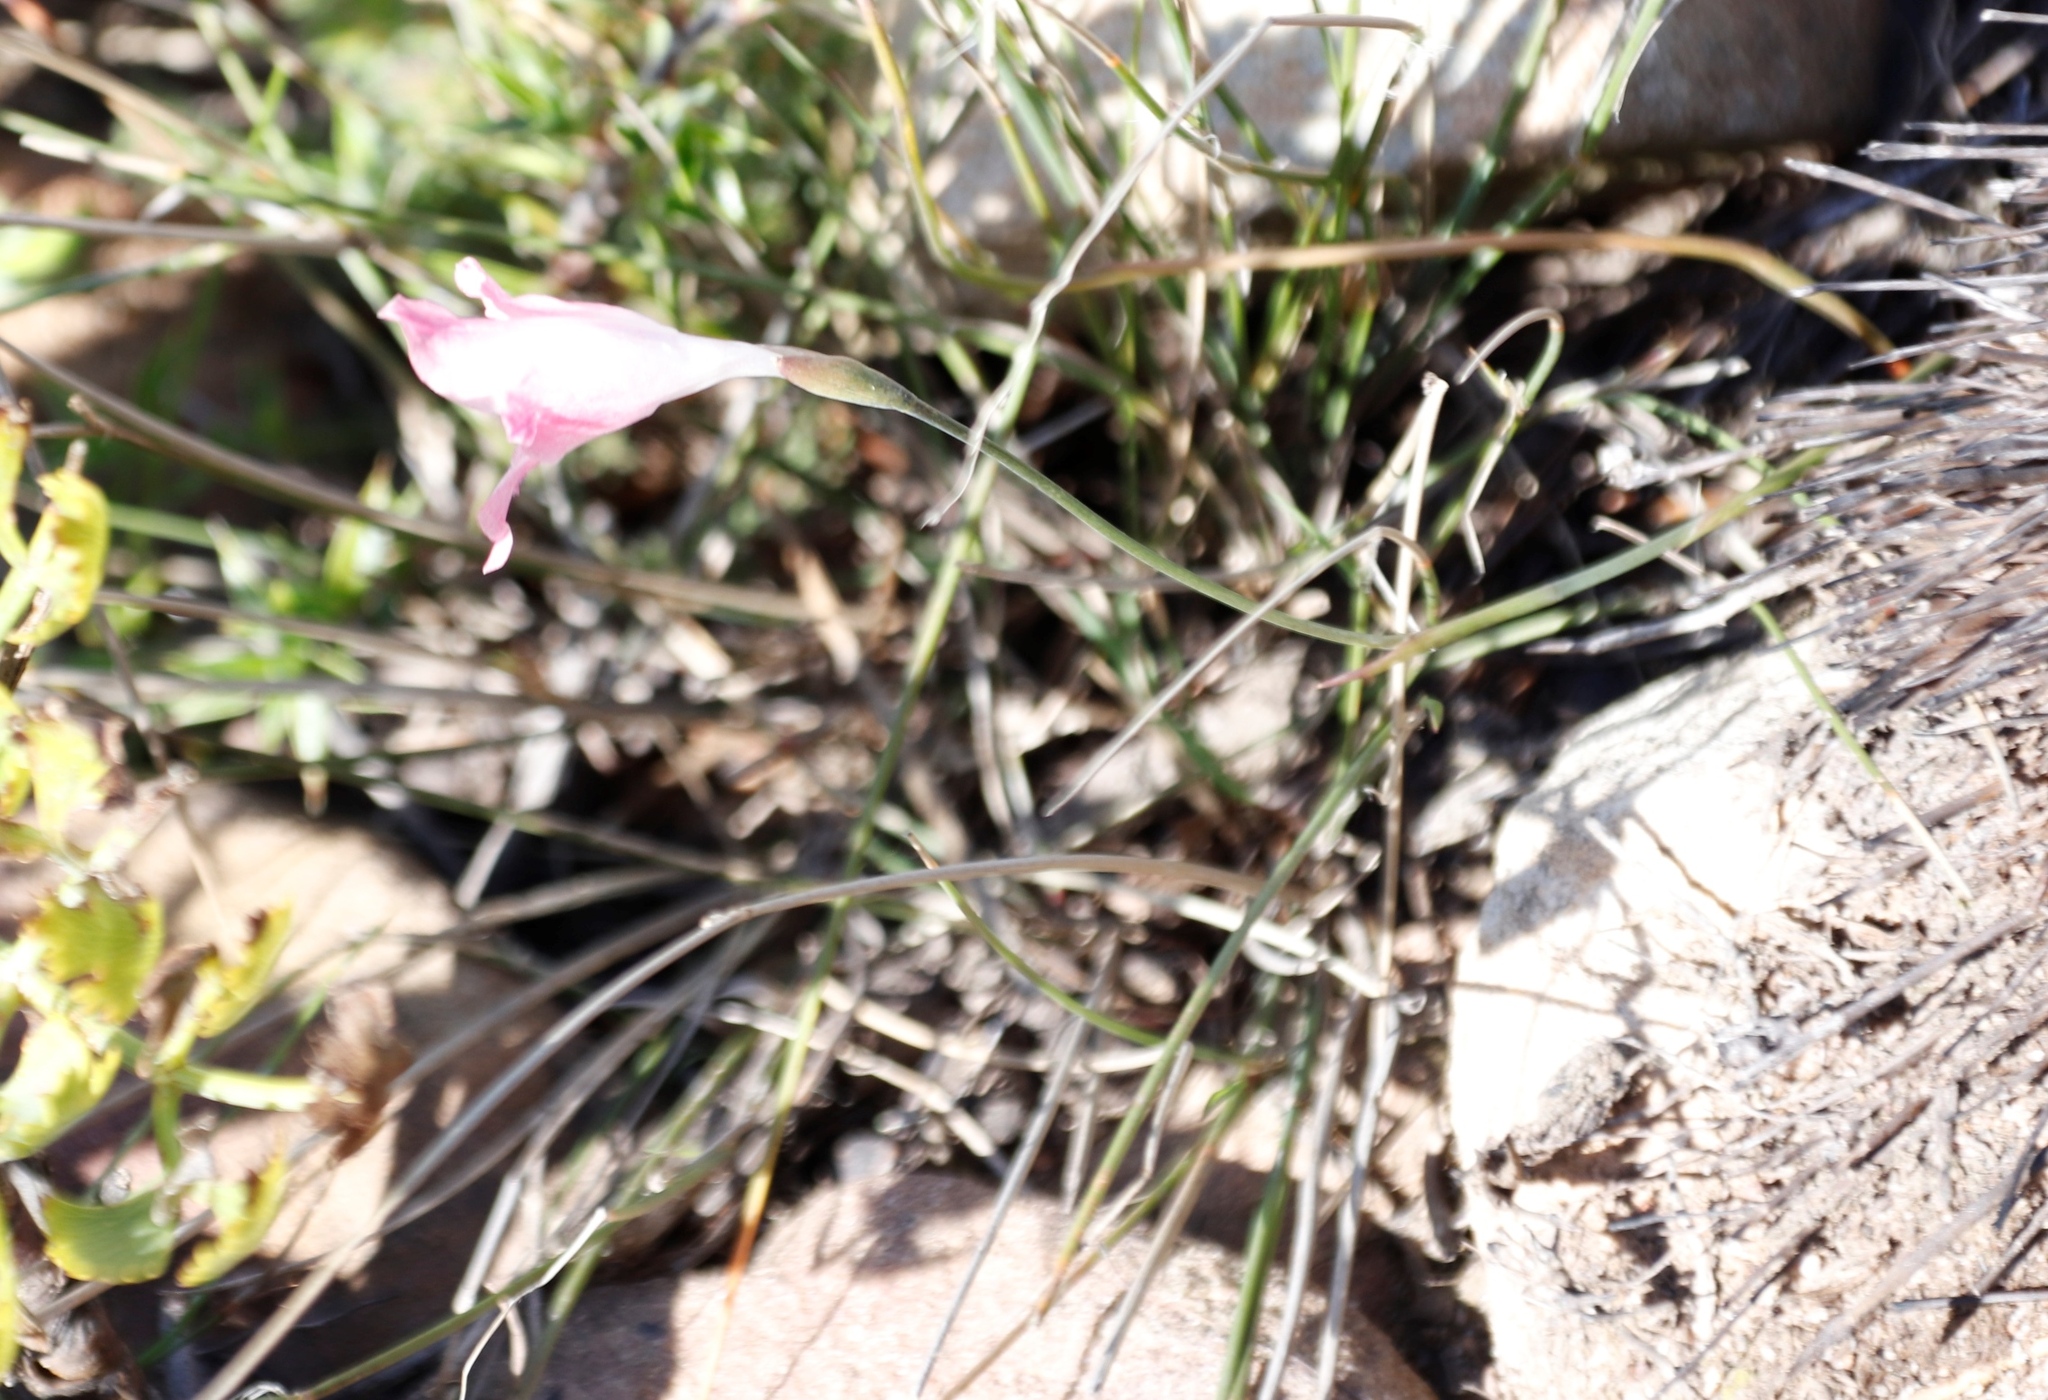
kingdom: Plantae
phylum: Tracheophyta
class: Liliopsida
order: Asparagales
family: Iridaceae
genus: Gladiolus
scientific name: Gladiolus brevifolius
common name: March pypie
